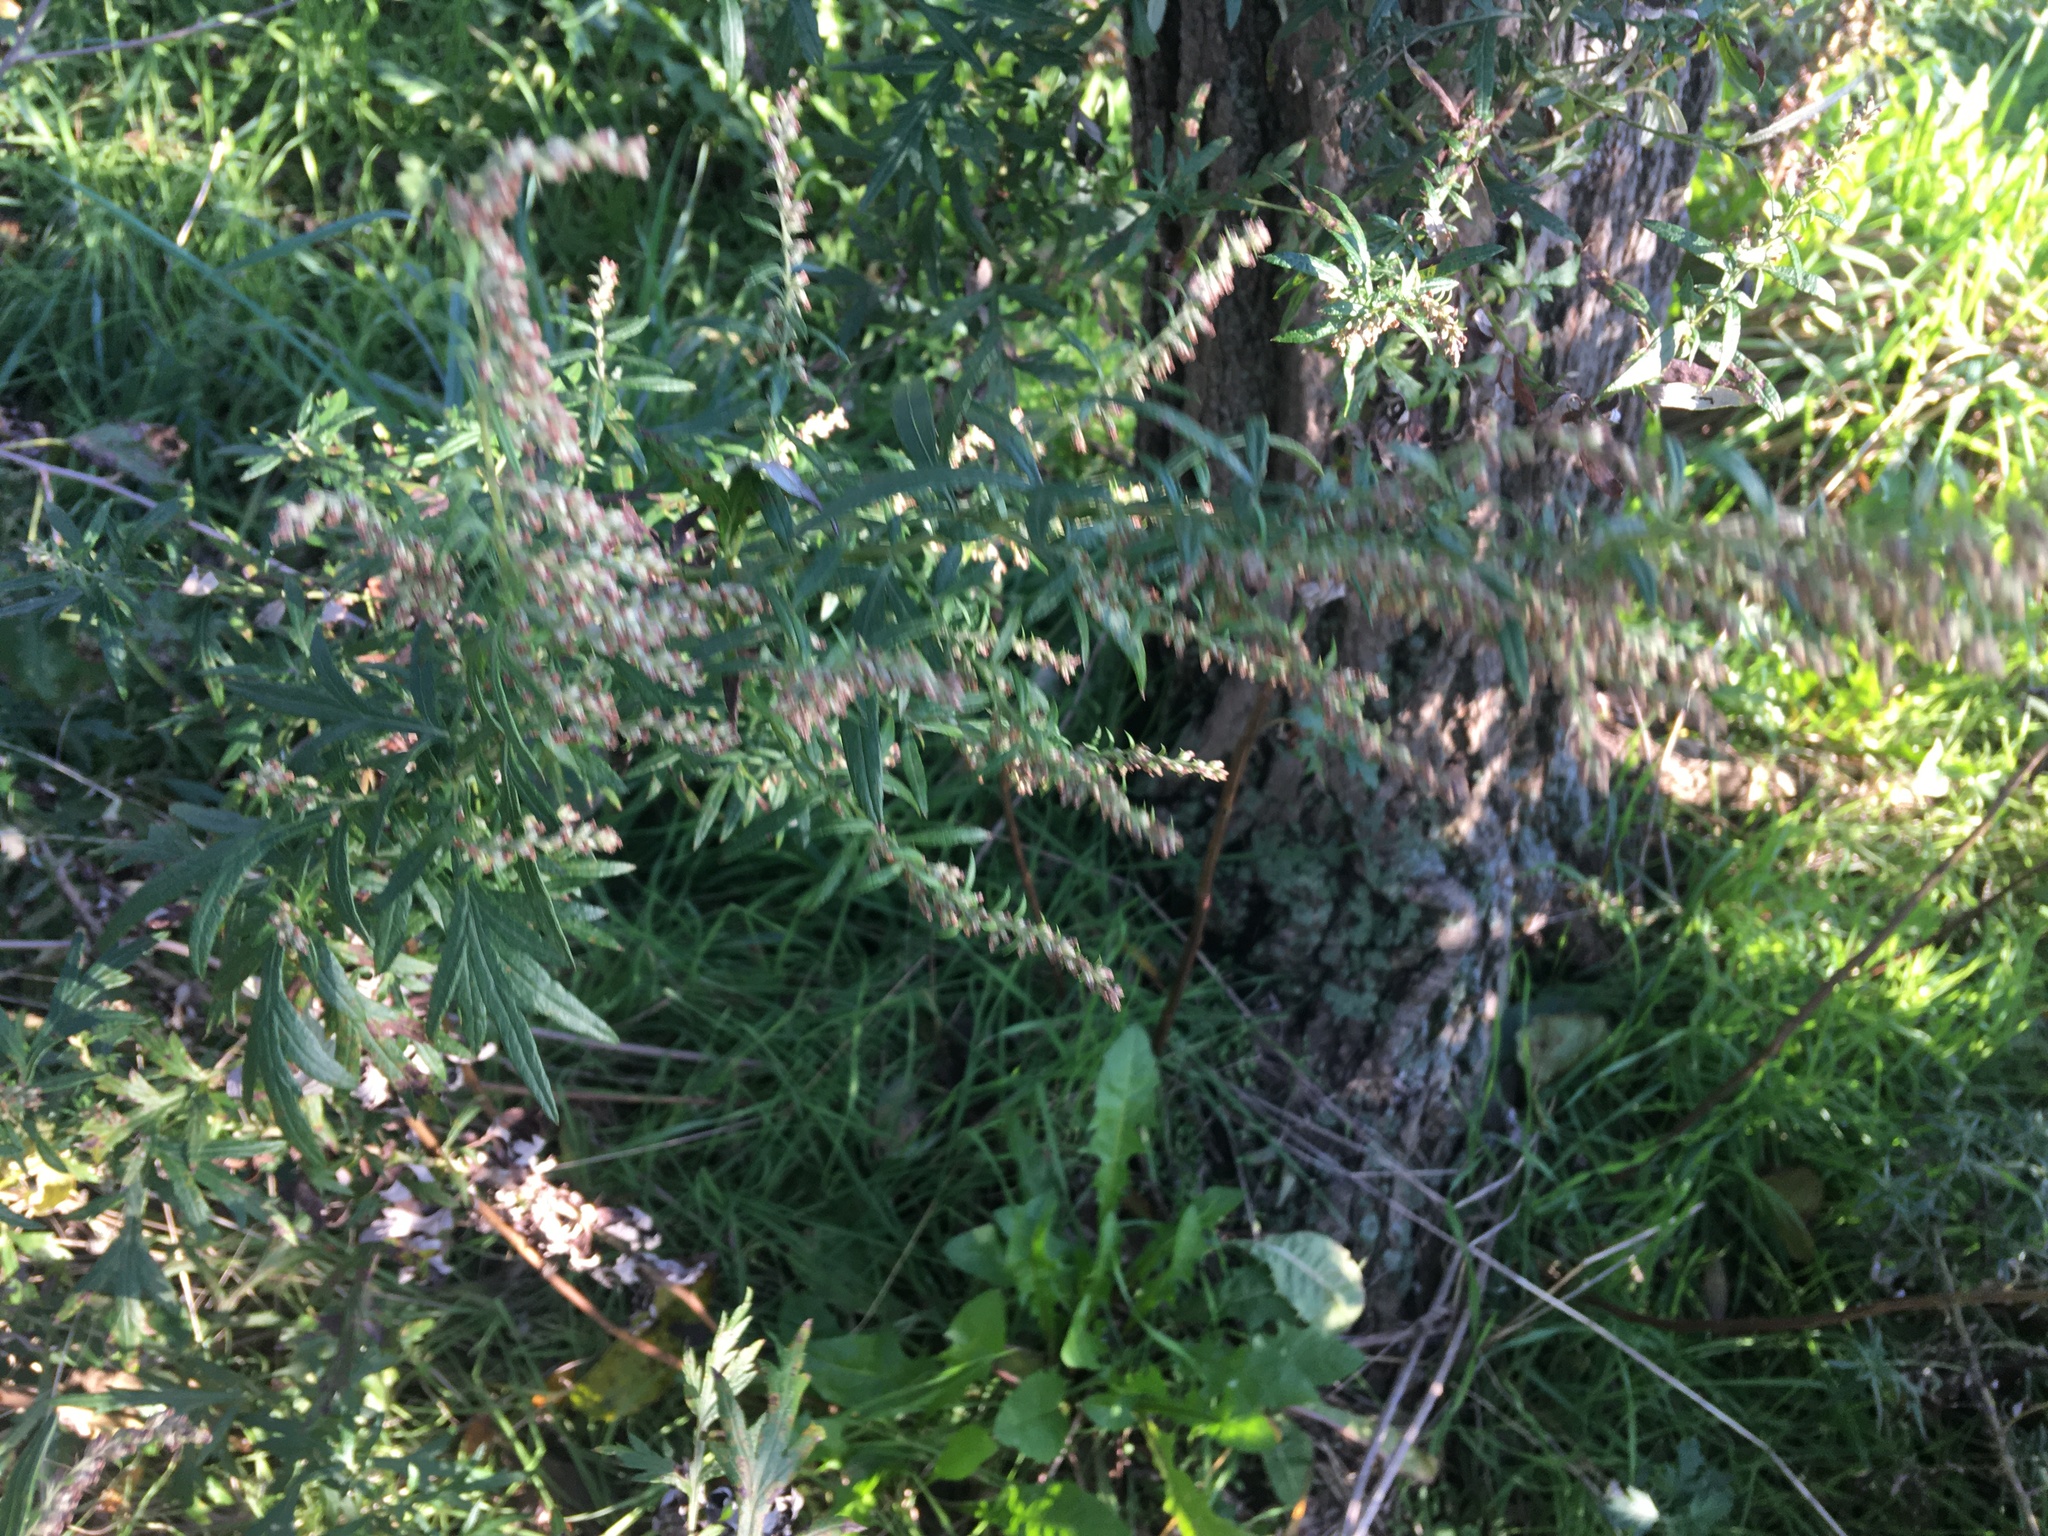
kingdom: Plantae
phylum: Tracheophyta
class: Magnoliopsida
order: Asterales
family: Asteraceae
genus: Artemisia
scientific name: Artemisia vulgaris
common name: Mugwort
